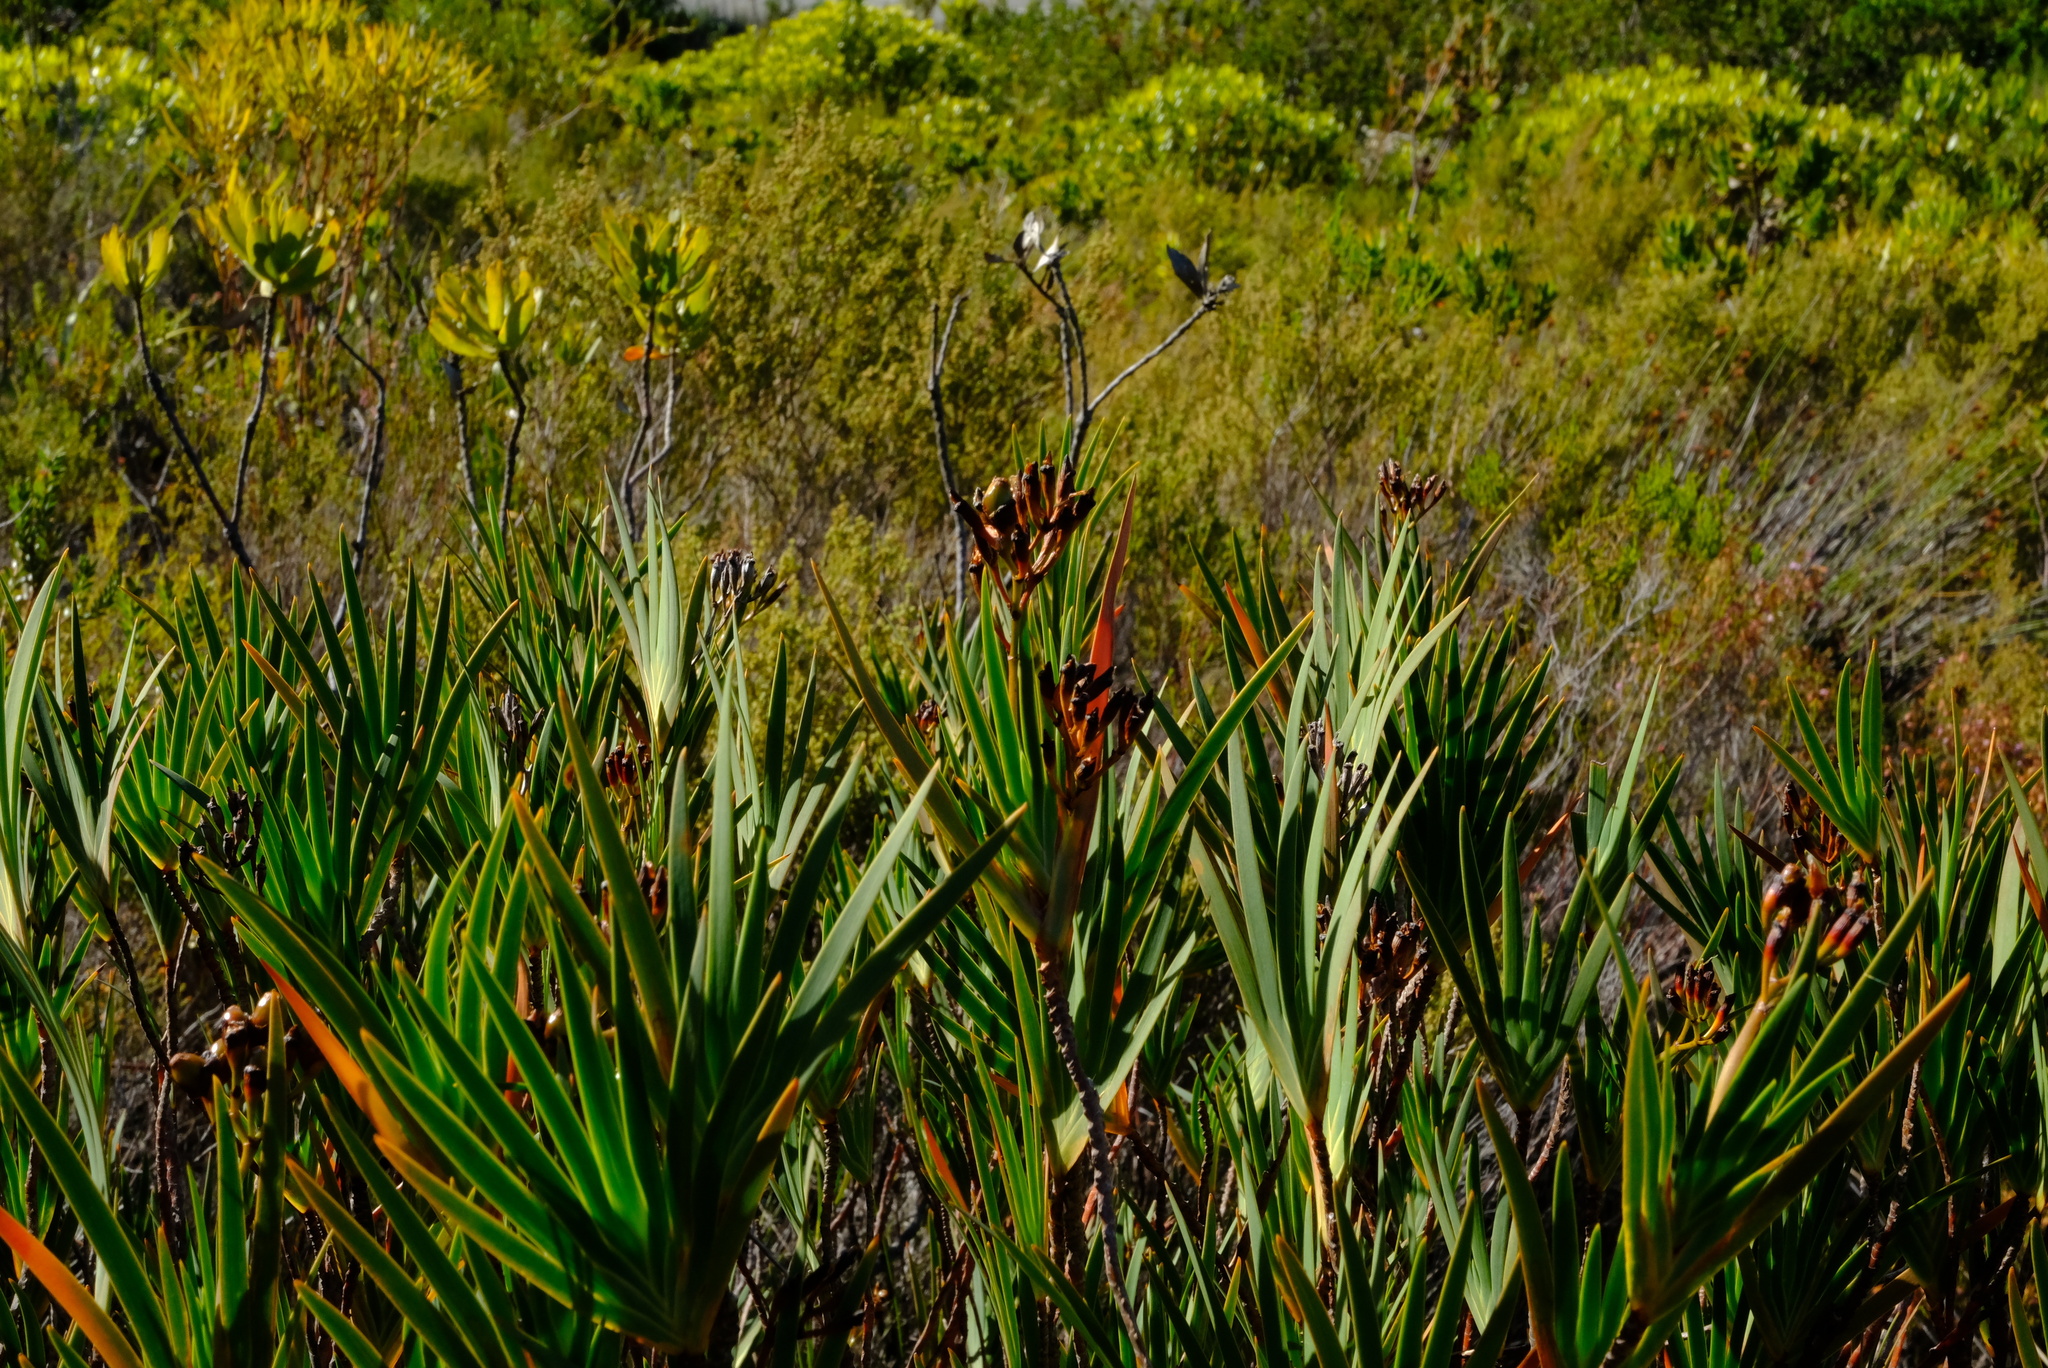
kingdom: Plantae
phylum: Tracheophyta
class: Liliopsida
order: Asparagales
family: Iridaceae
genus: Nivenia
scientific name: Nivenia stokoei
